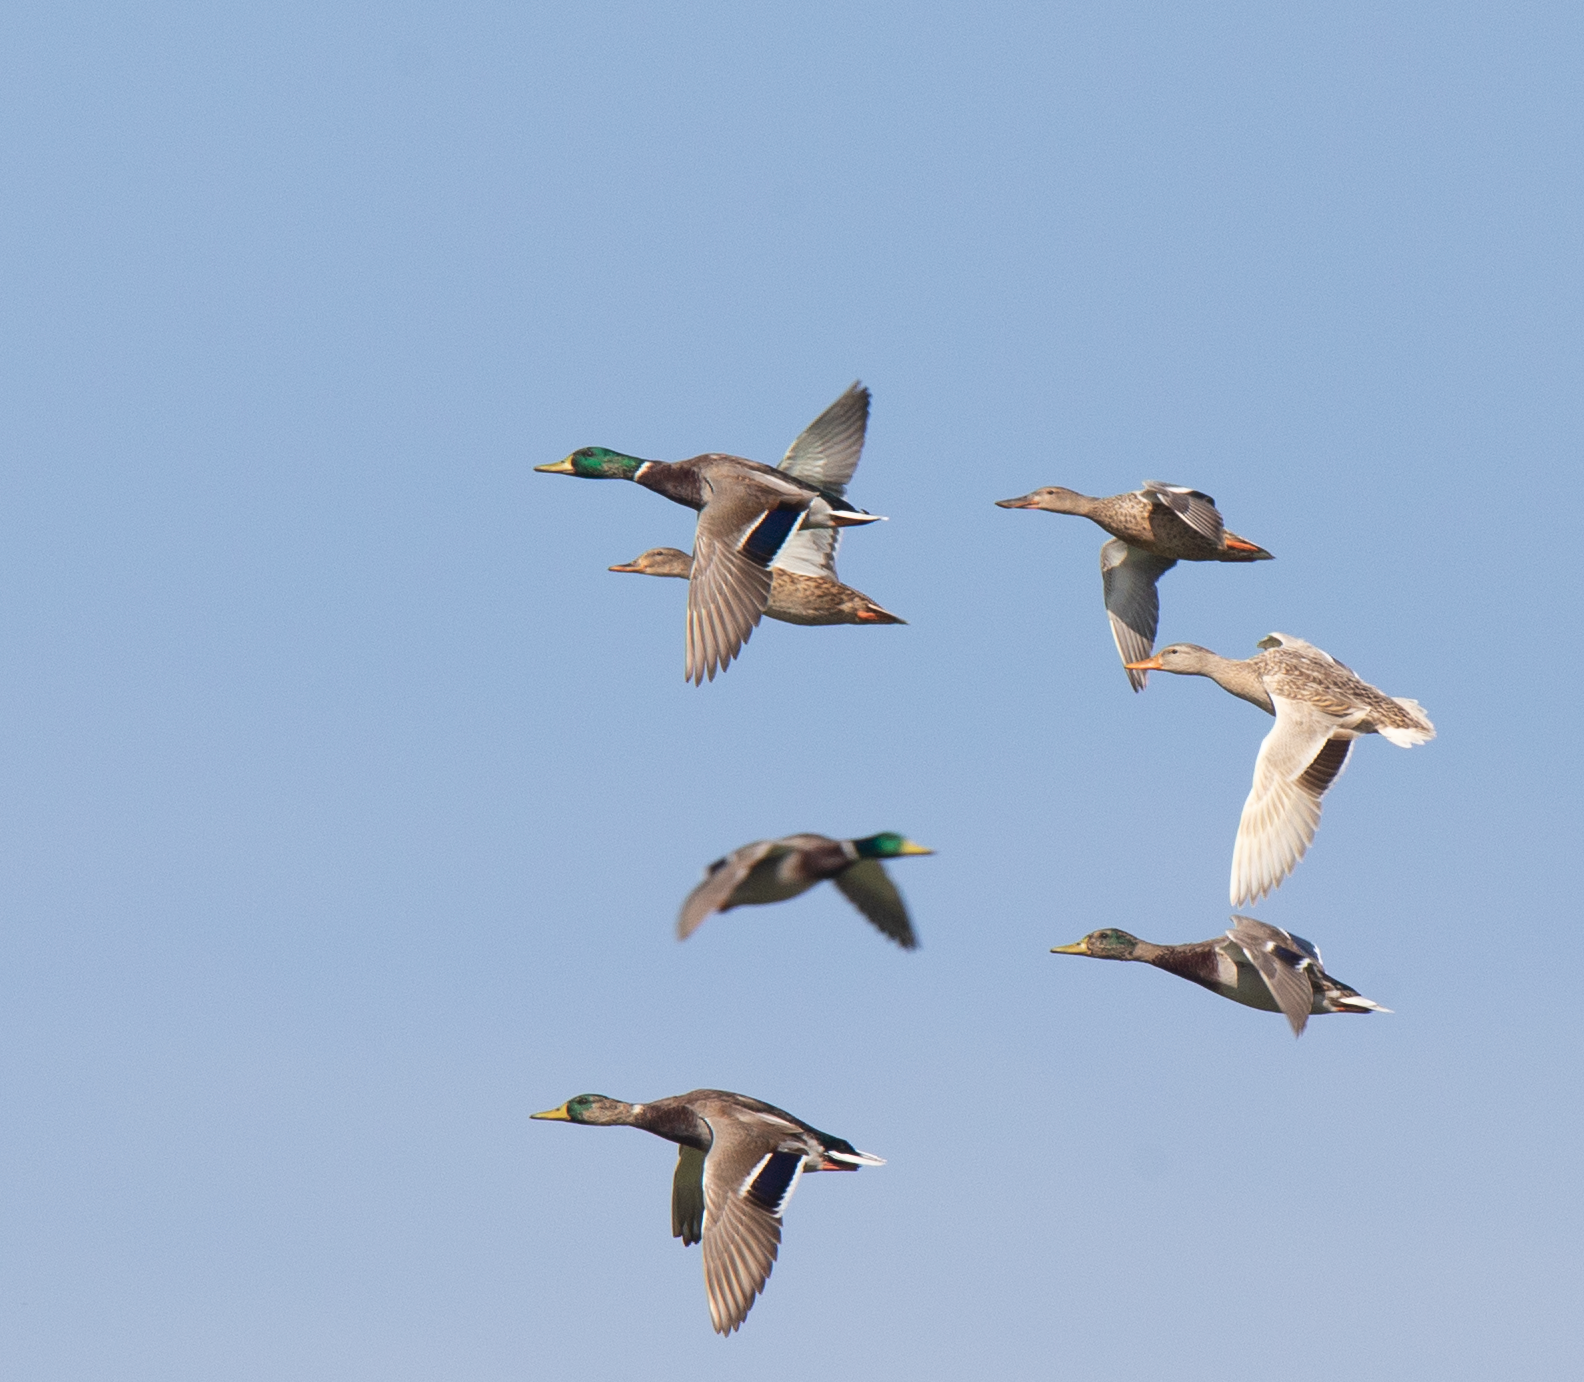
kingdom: Animalia
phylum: Chordata
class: Aves
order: Anseriformes
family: Anatidae
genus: Anas
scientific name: Anas platyrhynchos
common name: Mallard
